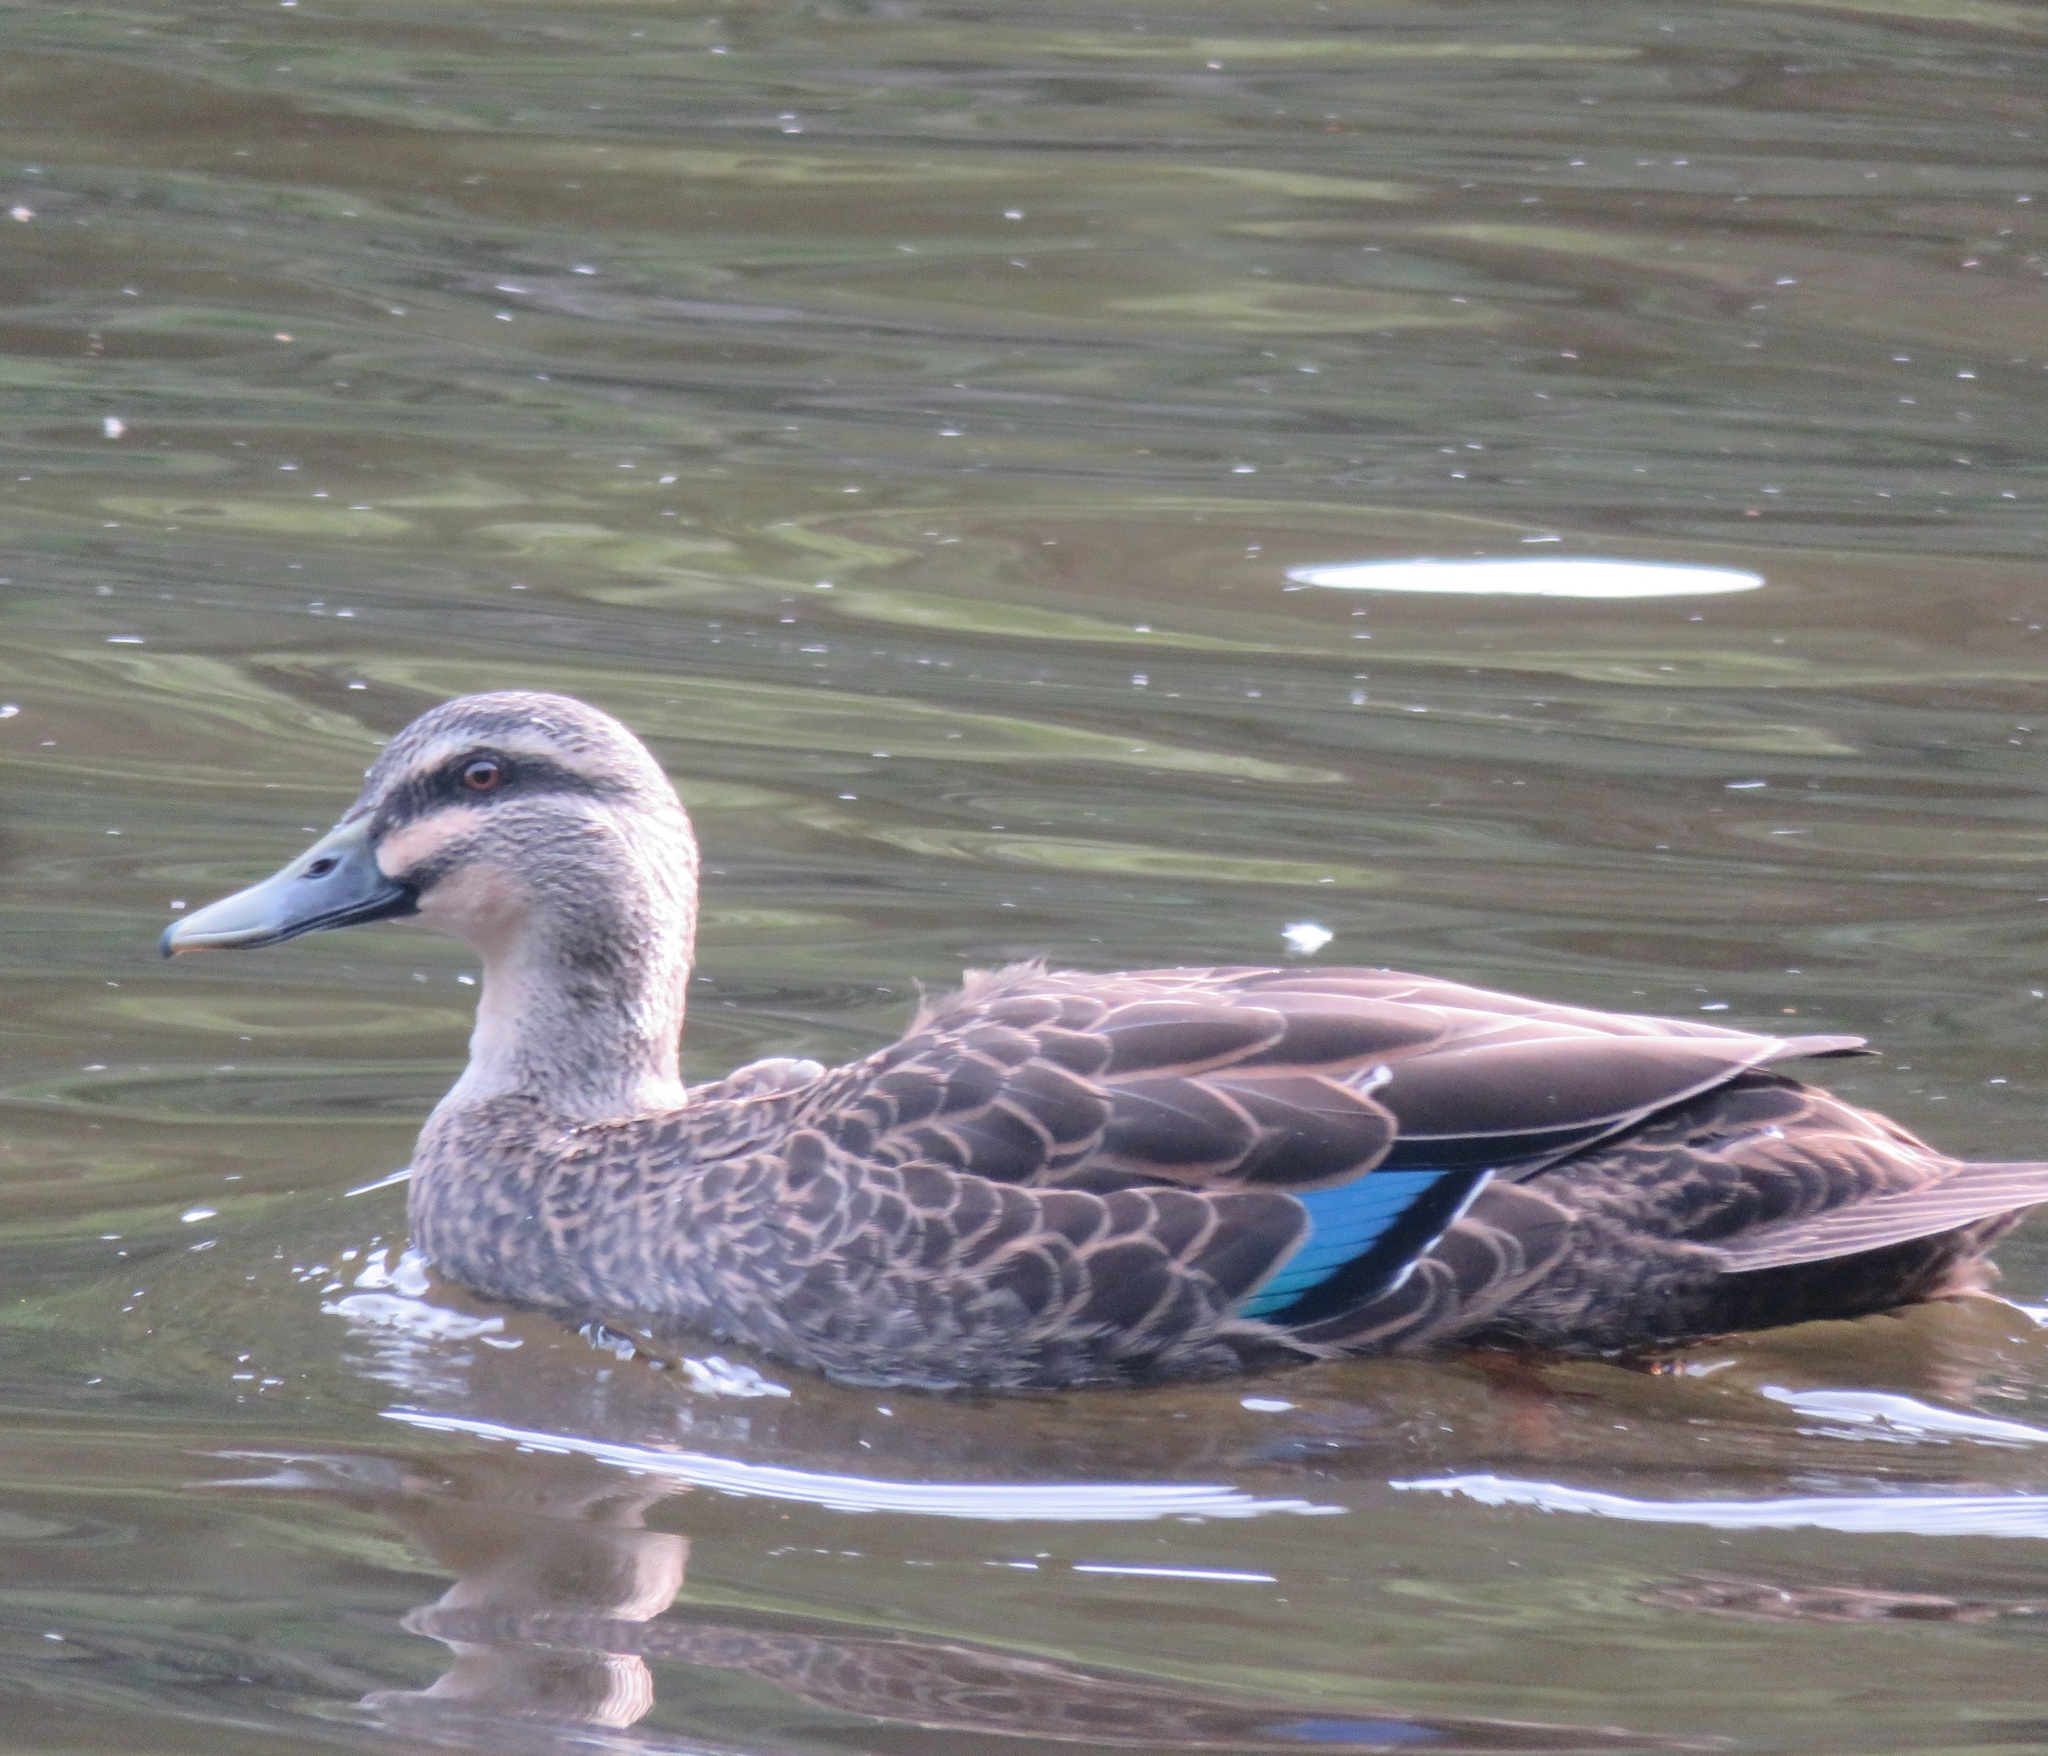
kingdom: Animalia
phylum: Chordata
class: Aves
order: Anseriformes
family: Anatidae
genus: Anas
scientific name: Anas
